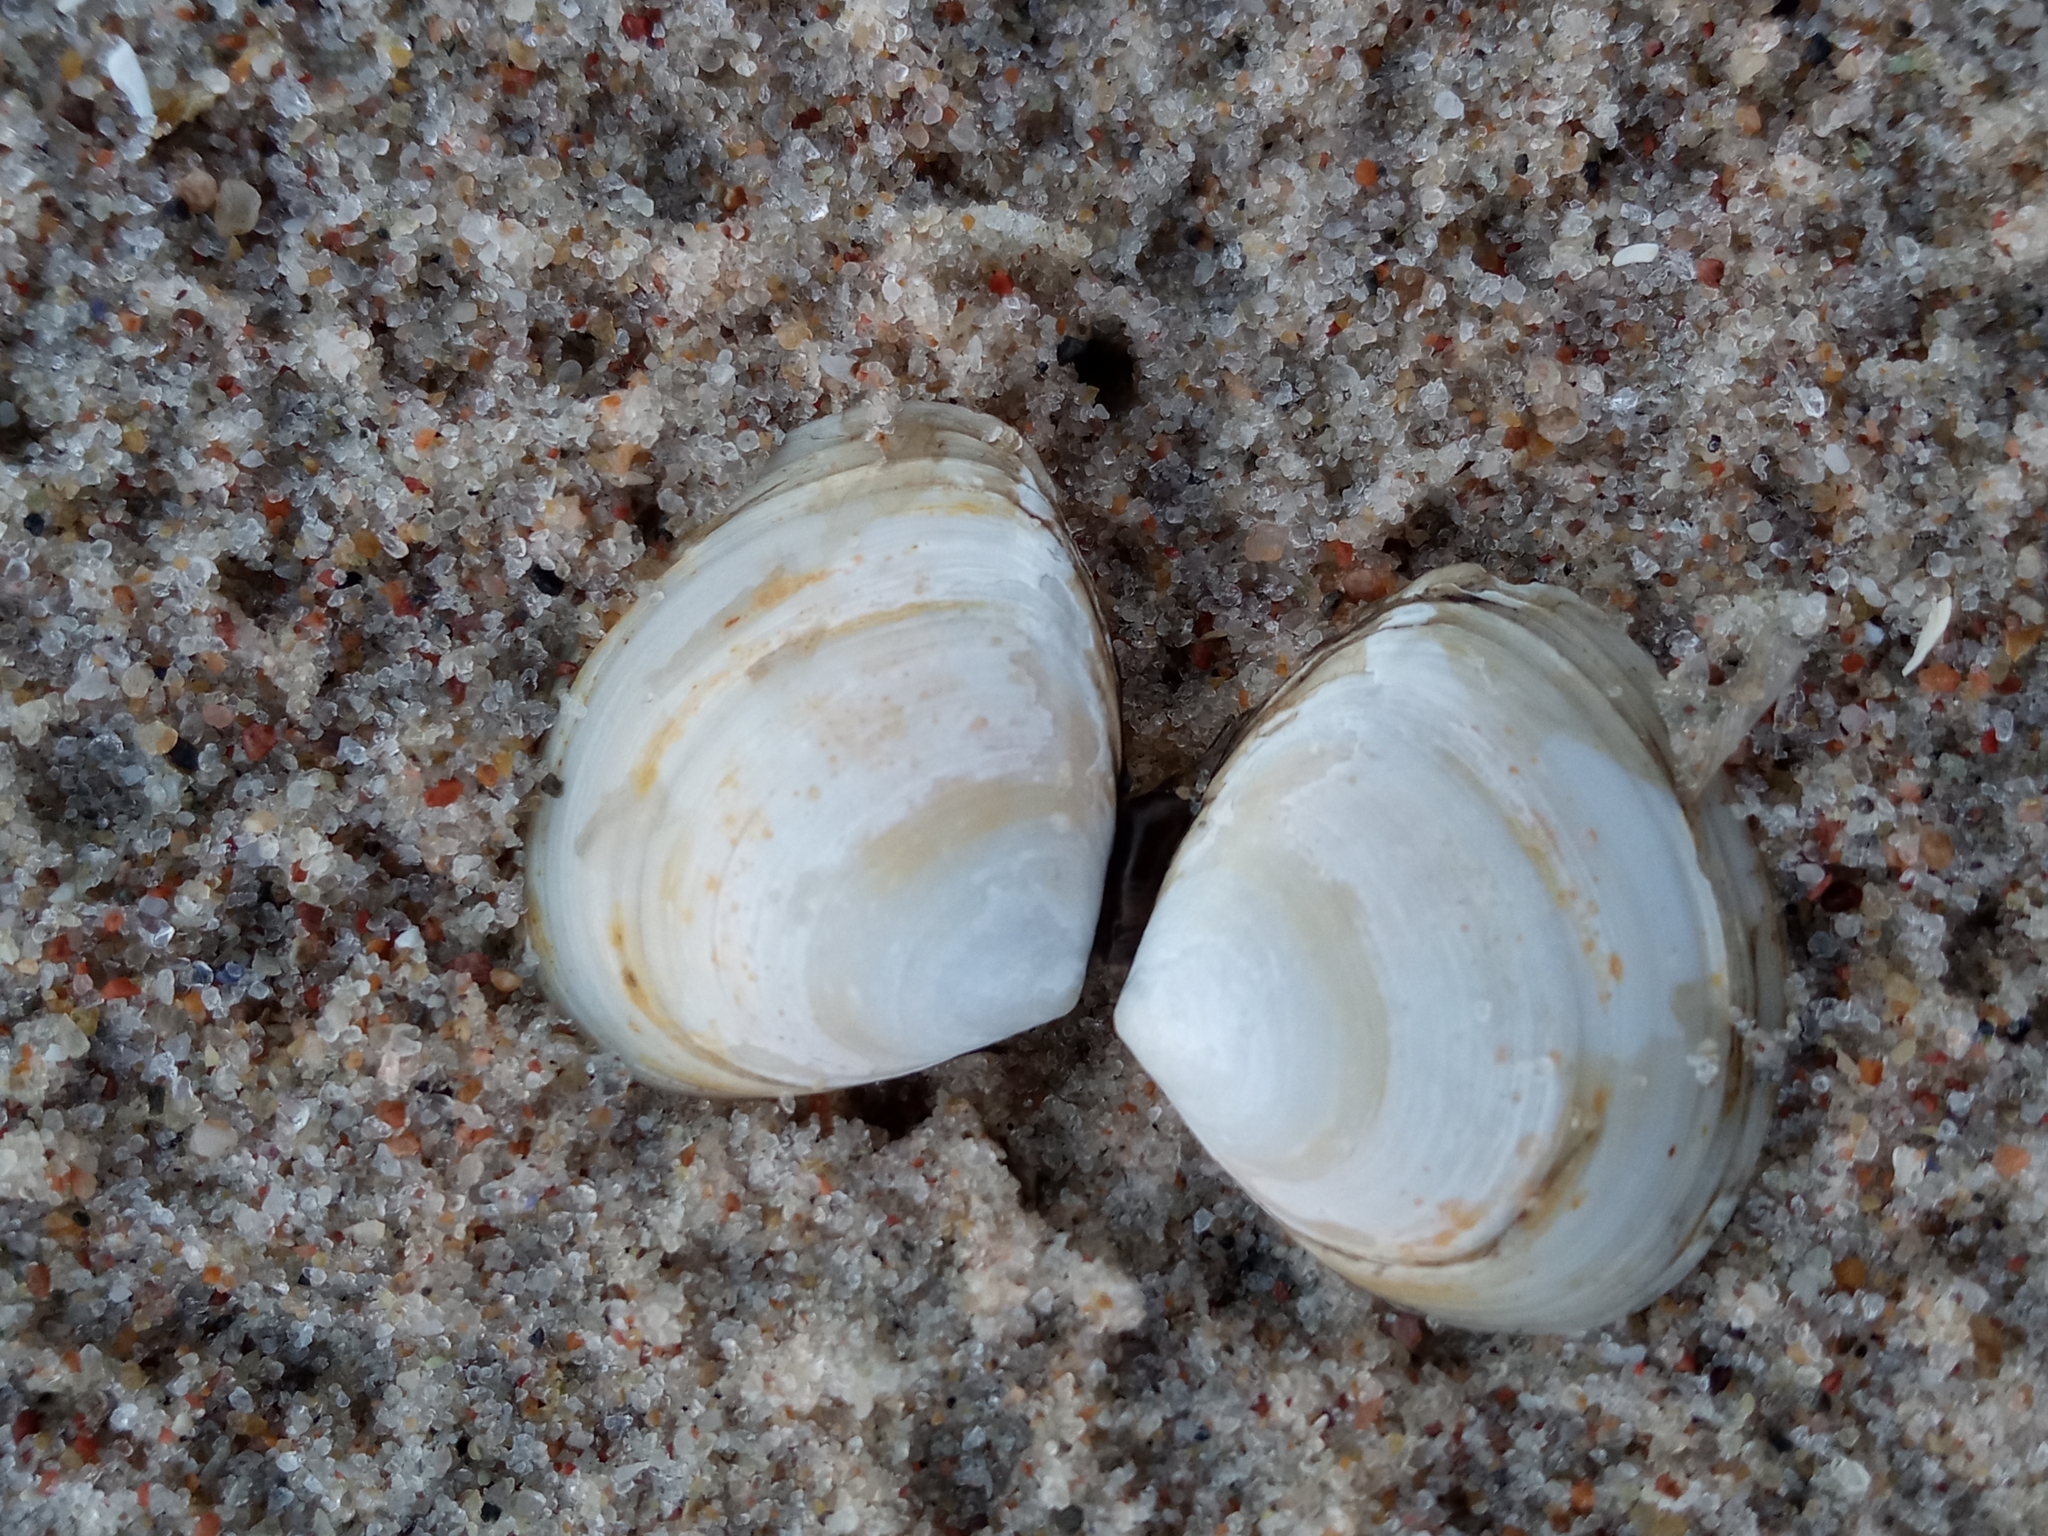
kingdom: Animalia
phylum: Mollusca
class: Bivalvia
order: Cardiida
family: Tellinidae
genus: Macoma
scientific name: Macoma balthica
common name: Baltic tellin
